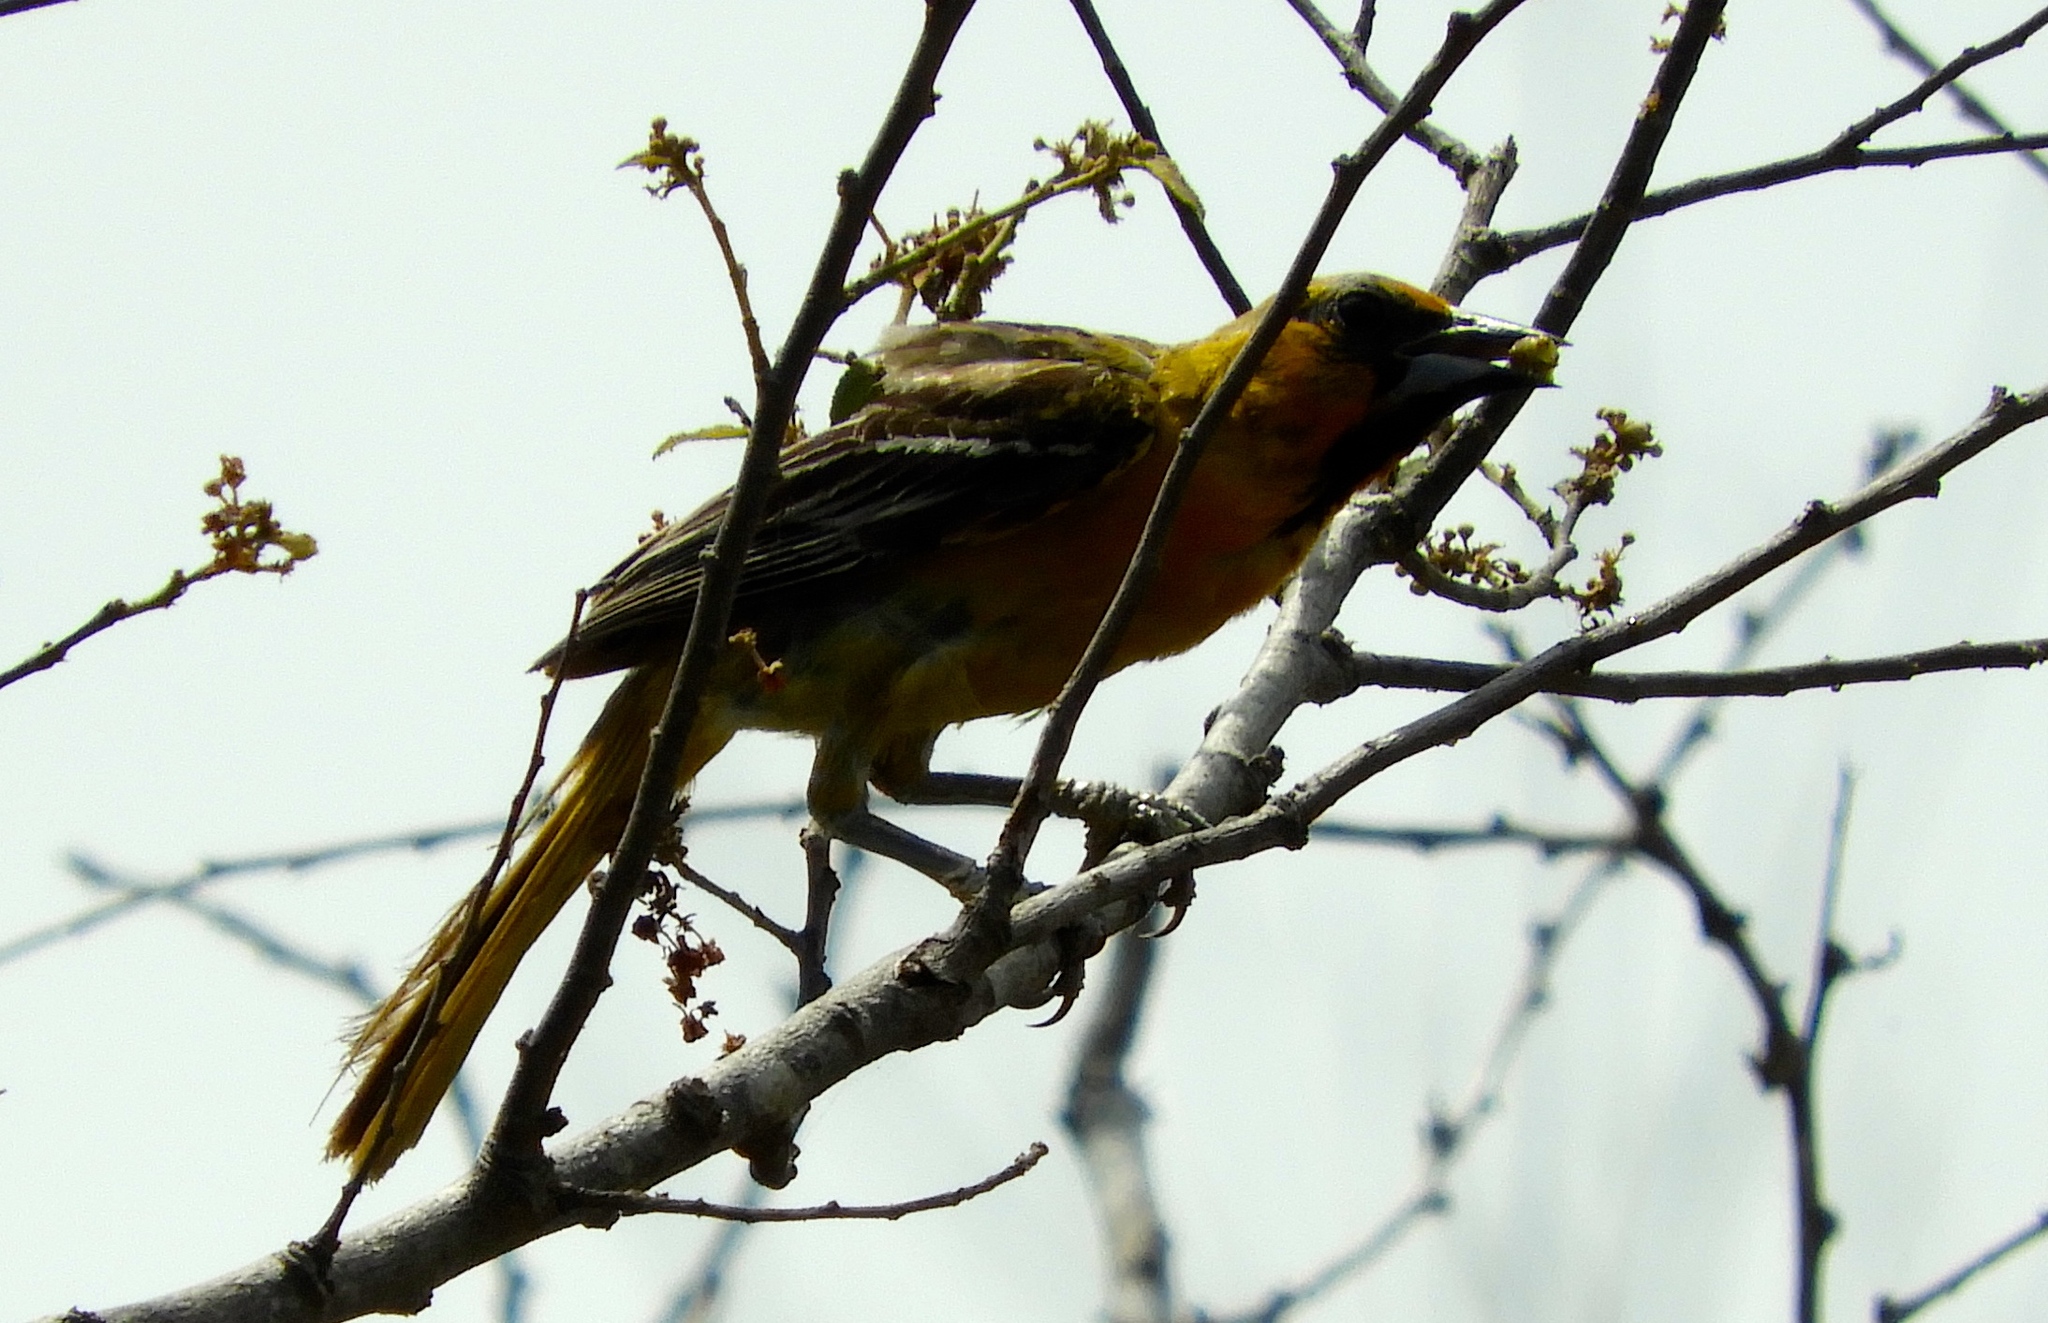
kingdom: Animalia
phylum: Chordata
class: Aves
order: Passeriformes
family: Icteridae
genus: Icterus
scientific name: Icterus pustulatus
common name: Streak-backed oriole
